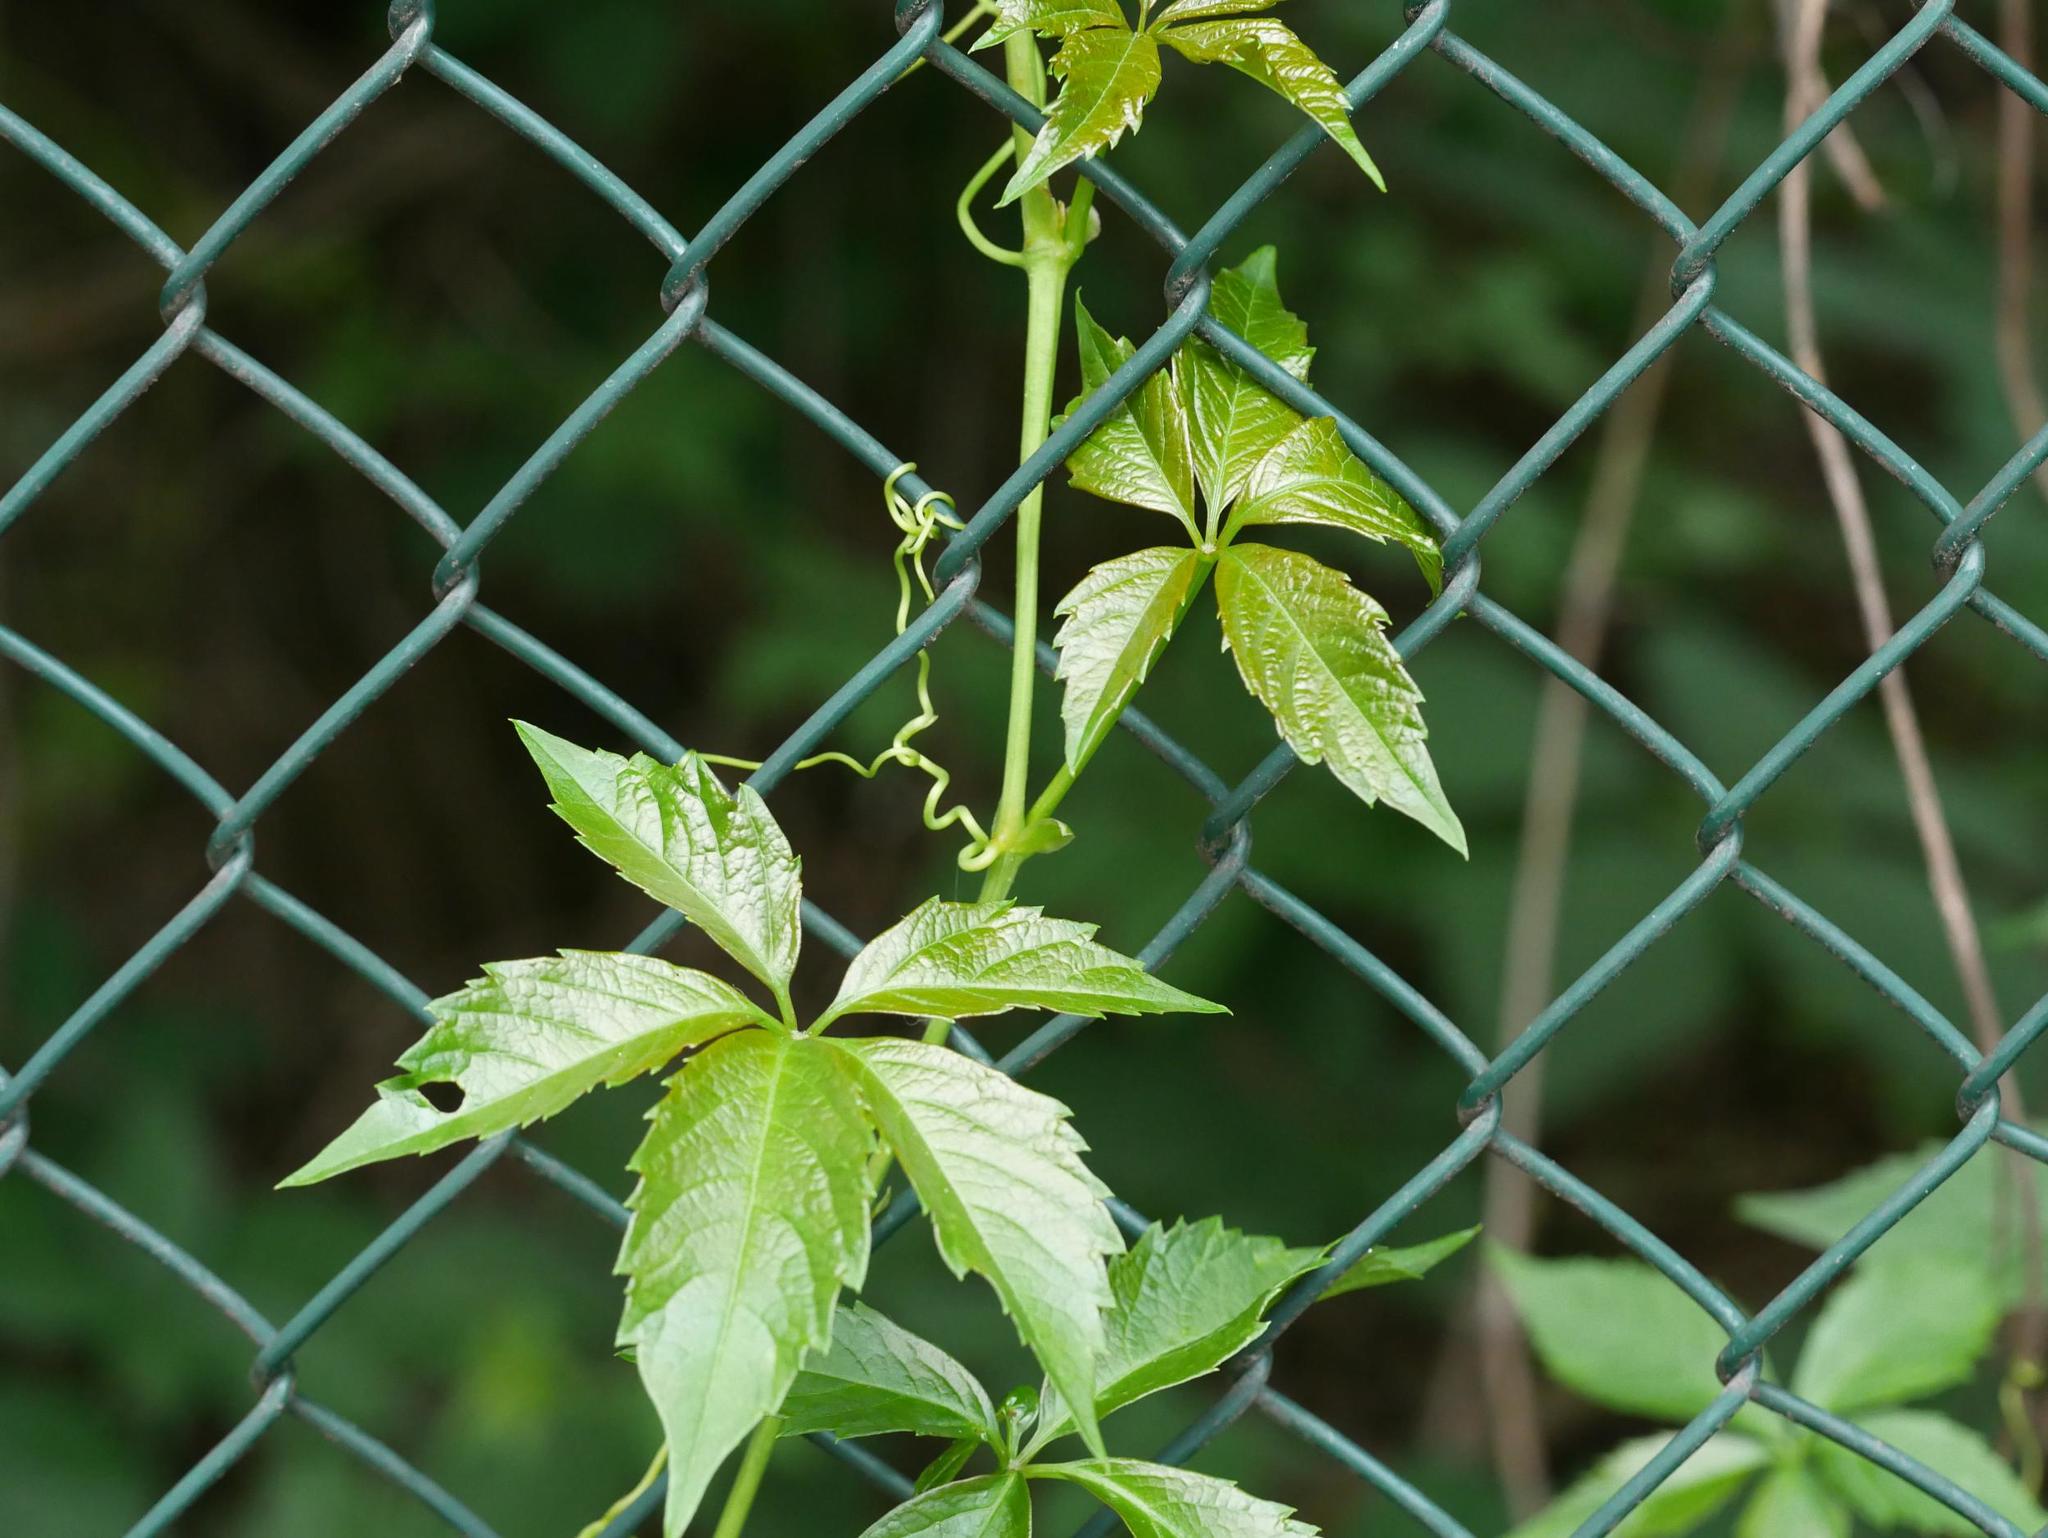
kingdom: Plantae
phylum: Tracheophyta
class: Magnoliopsida
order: Vitales
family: Vitaceae
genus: Parthenocissus
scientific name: Parthenocissus inserta
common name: False virginia-creeper
